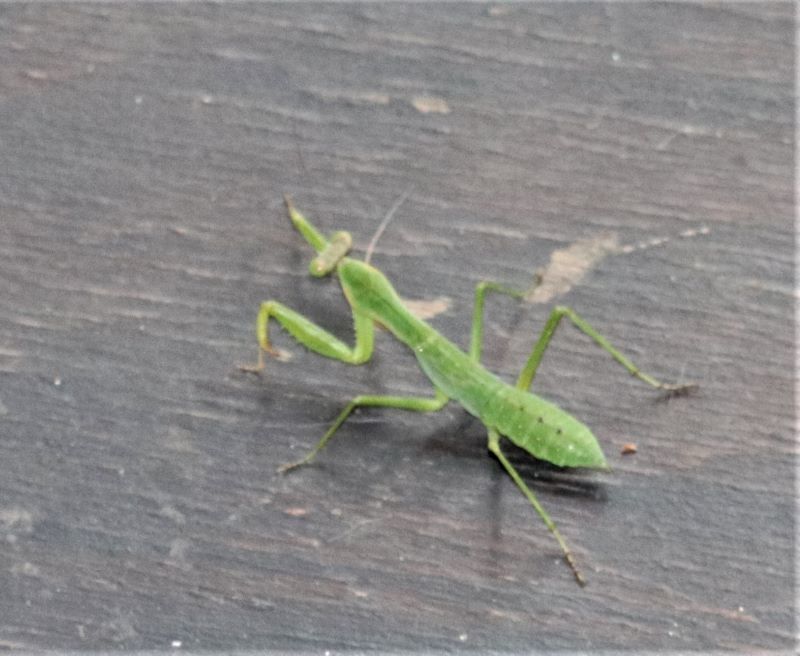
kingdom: Animalia
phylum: Arthropoda
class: Insecta
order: Mantodea
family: Mantidae
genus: Polyspilota
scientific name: Polyspilota aeruginosa
